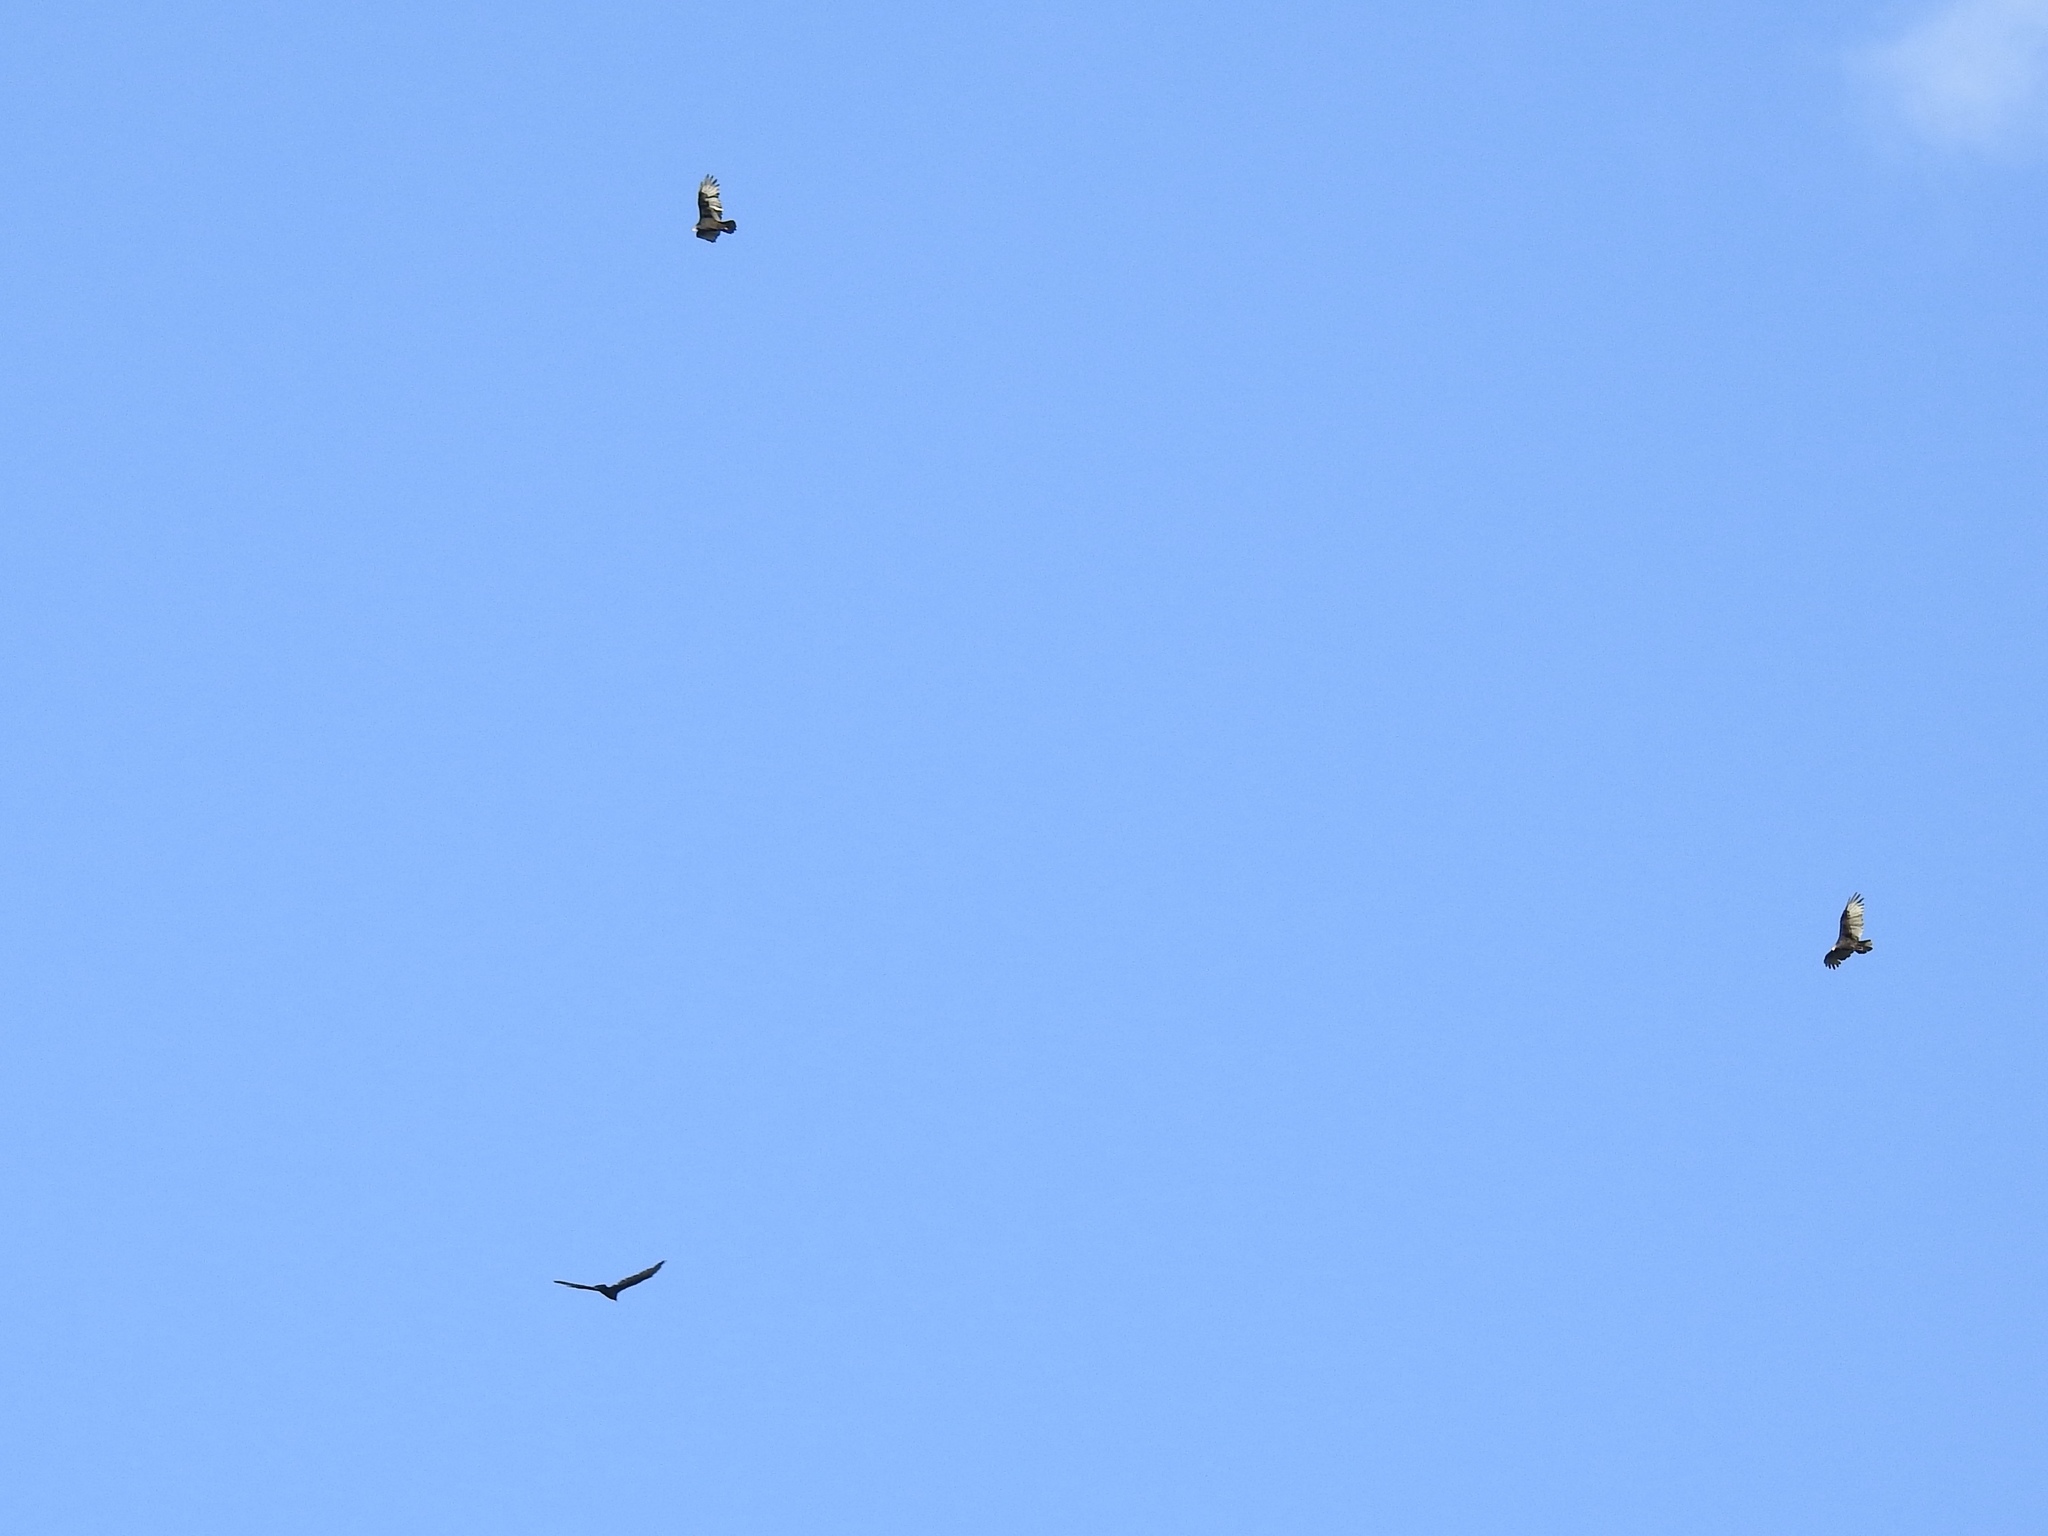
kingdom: Animalia
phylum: Chordata
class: Aves
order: Accipitriformes
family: Cathartidae
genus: Cathartes
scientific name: Cathartes aura
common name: Turkey vulture
